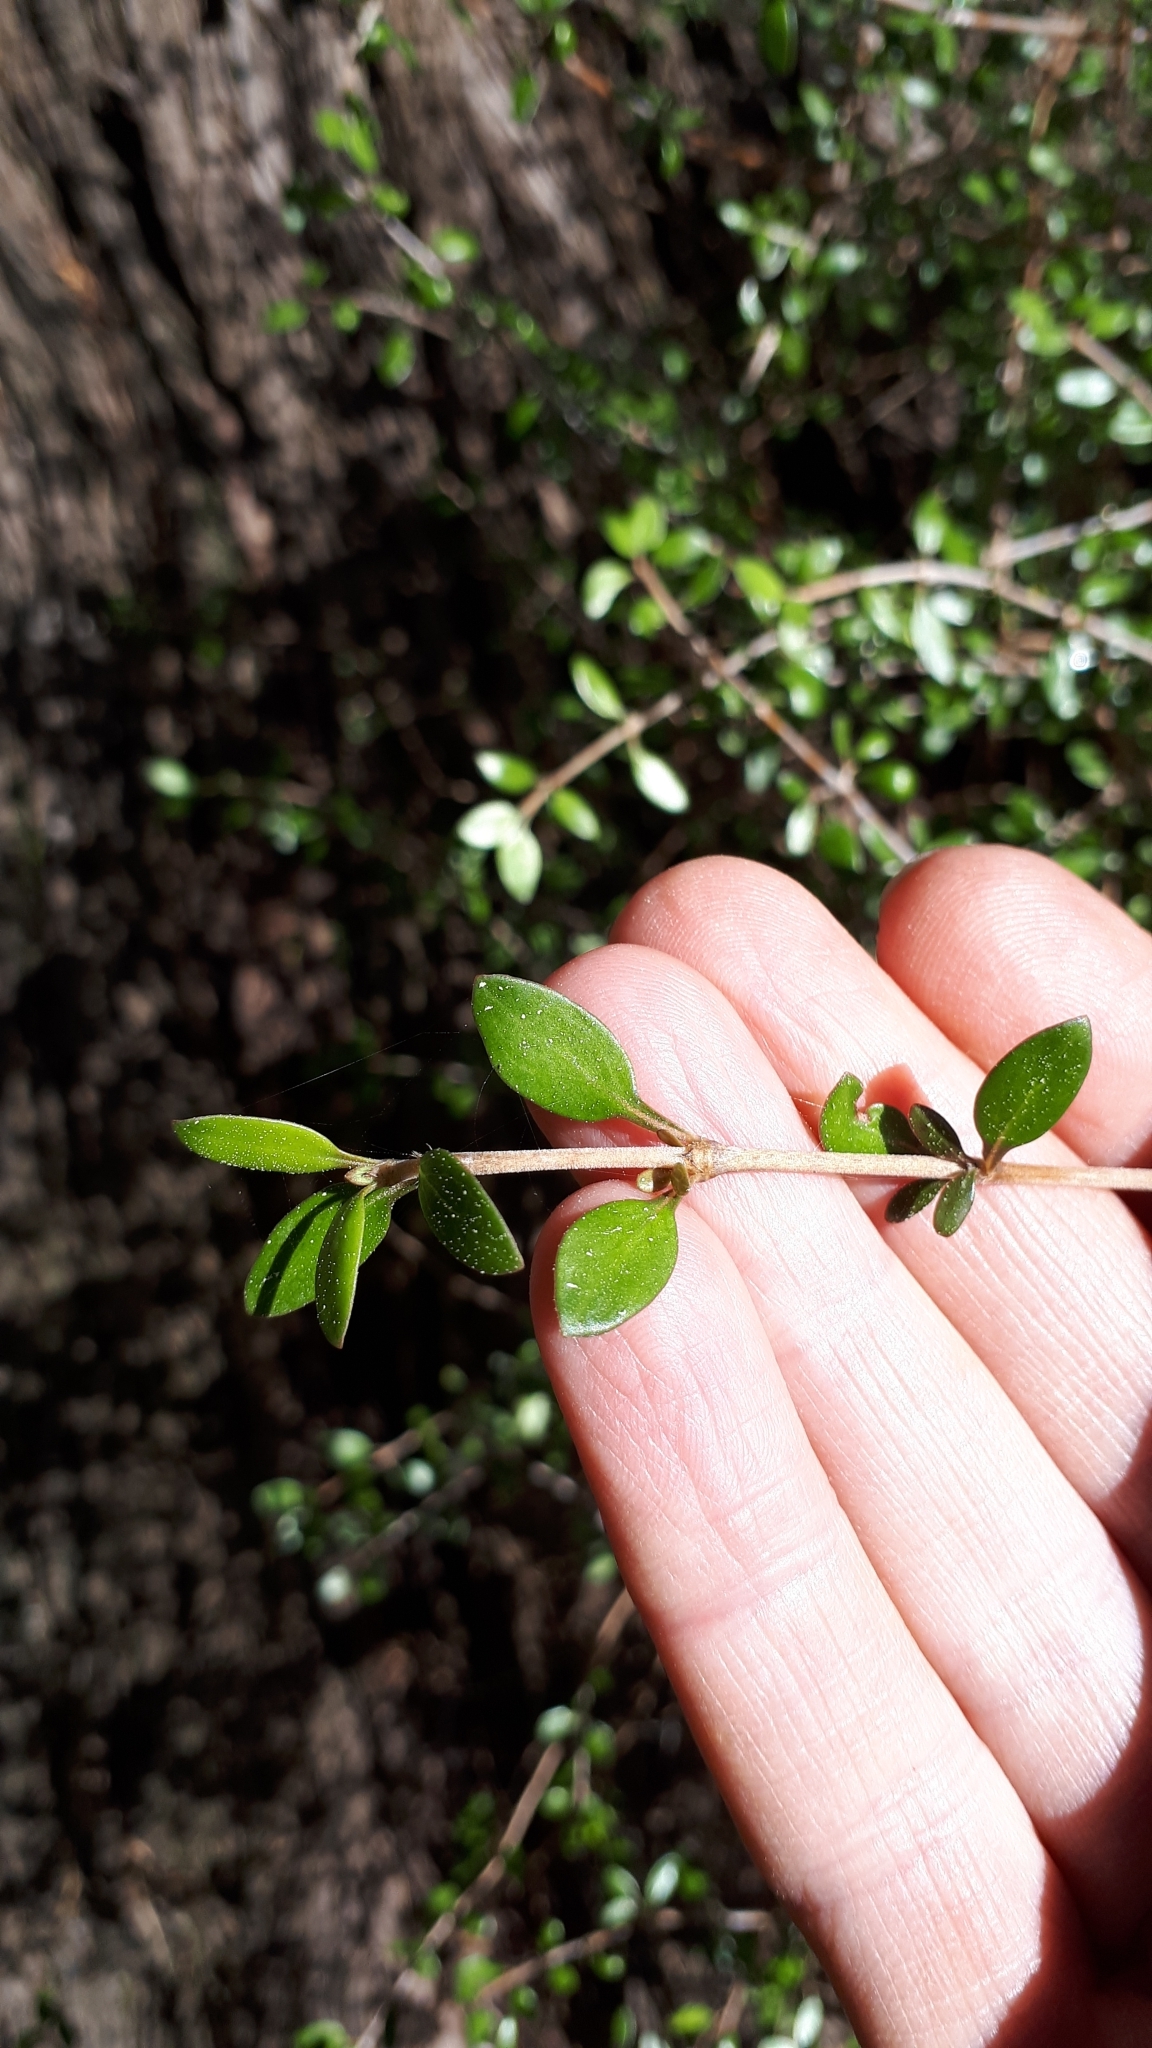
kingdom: Plantae
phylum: Tracheophyta
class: Magnoliopsida
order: Gentianales
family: Rubiaceae
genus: Coprosma
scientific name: Coprosma propinqua
